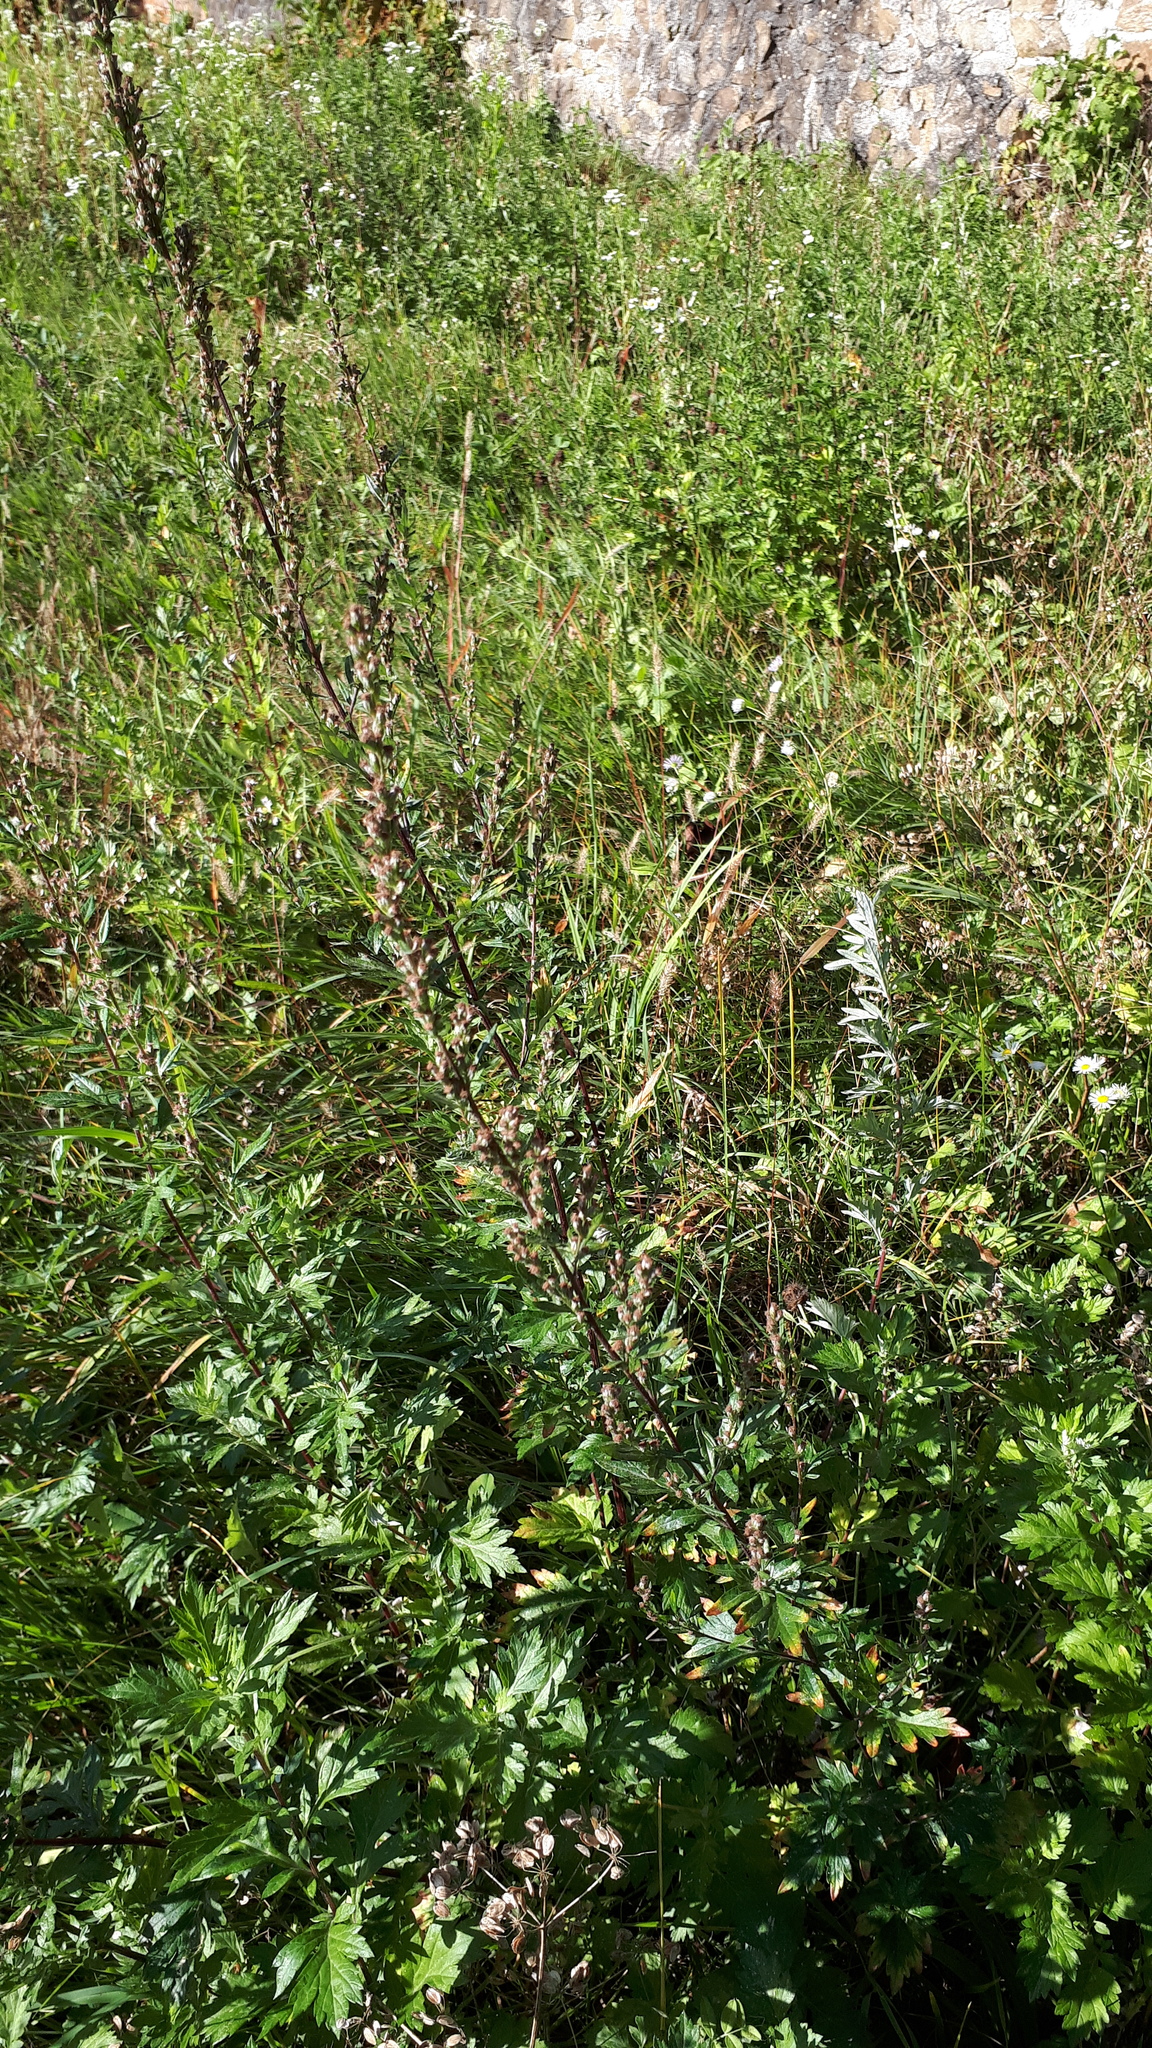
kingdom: Plantae
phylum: Tracheophyta
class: Magnoliopsida
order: Asterales
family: Asteraceae
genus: Artemisia
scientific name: Artemisia vulgaris
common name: Mugwort
